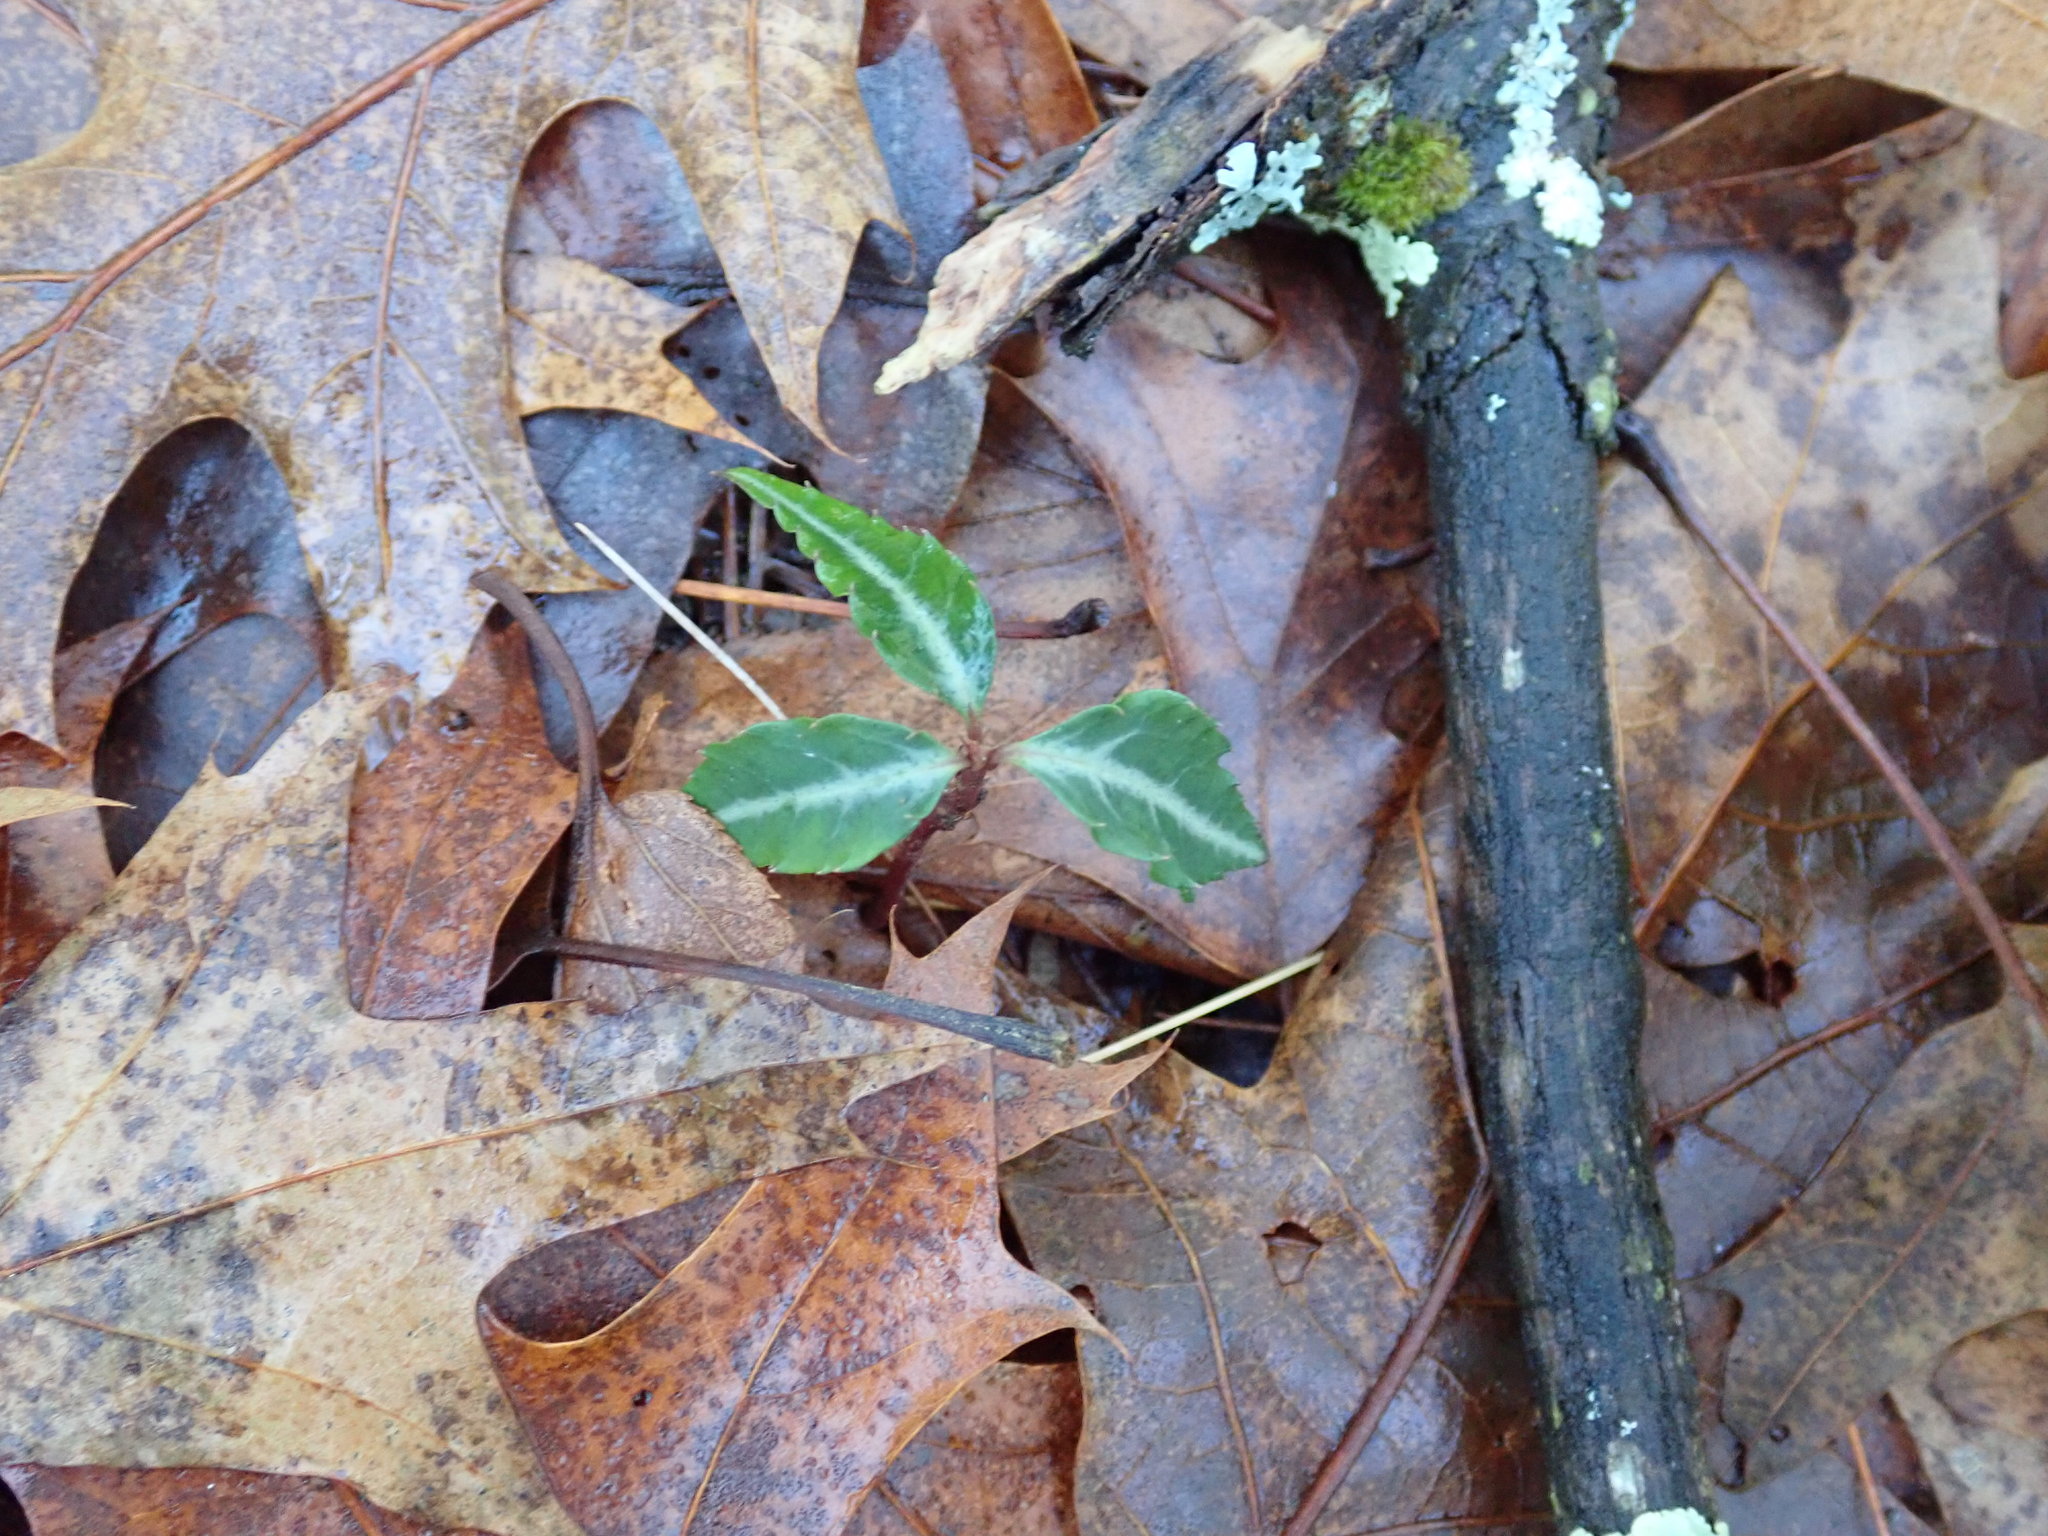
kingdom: Plantae
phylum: Tracheophyta
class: Magnoliopsida
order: Ericales
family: Ericaceae
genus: Chimaphila
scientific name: Chimaphila maculata
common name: Spotted pipsissewa
